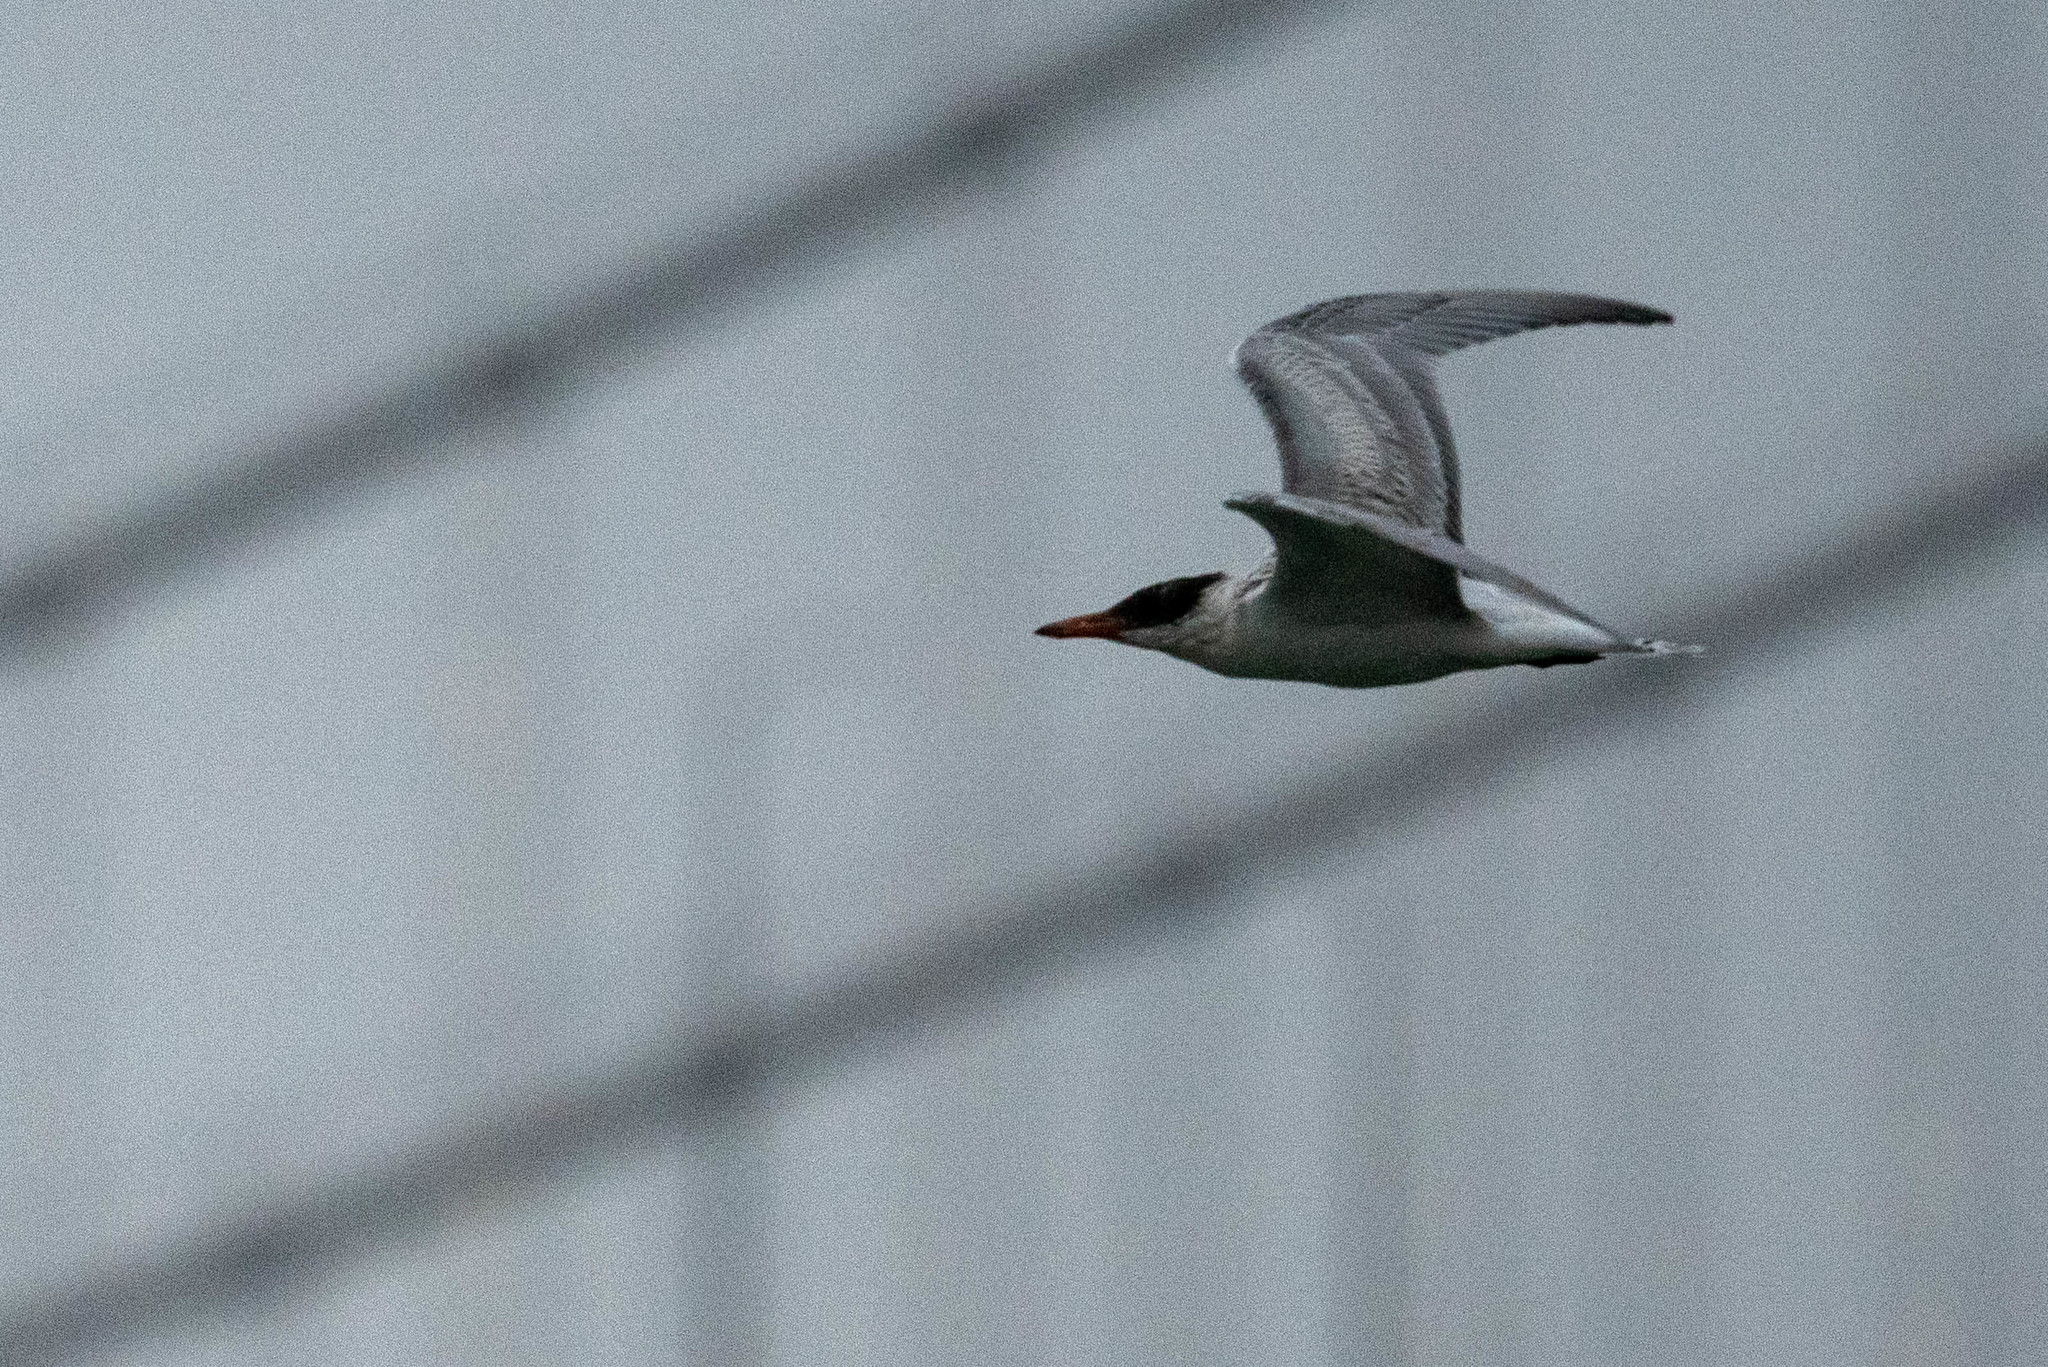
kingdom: Animalia
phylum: Chordata
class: Aves
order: Charadriiformes
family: Laridae
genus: Hydroprogne
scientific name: Hydroprogne caspia
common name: Caspian tern
